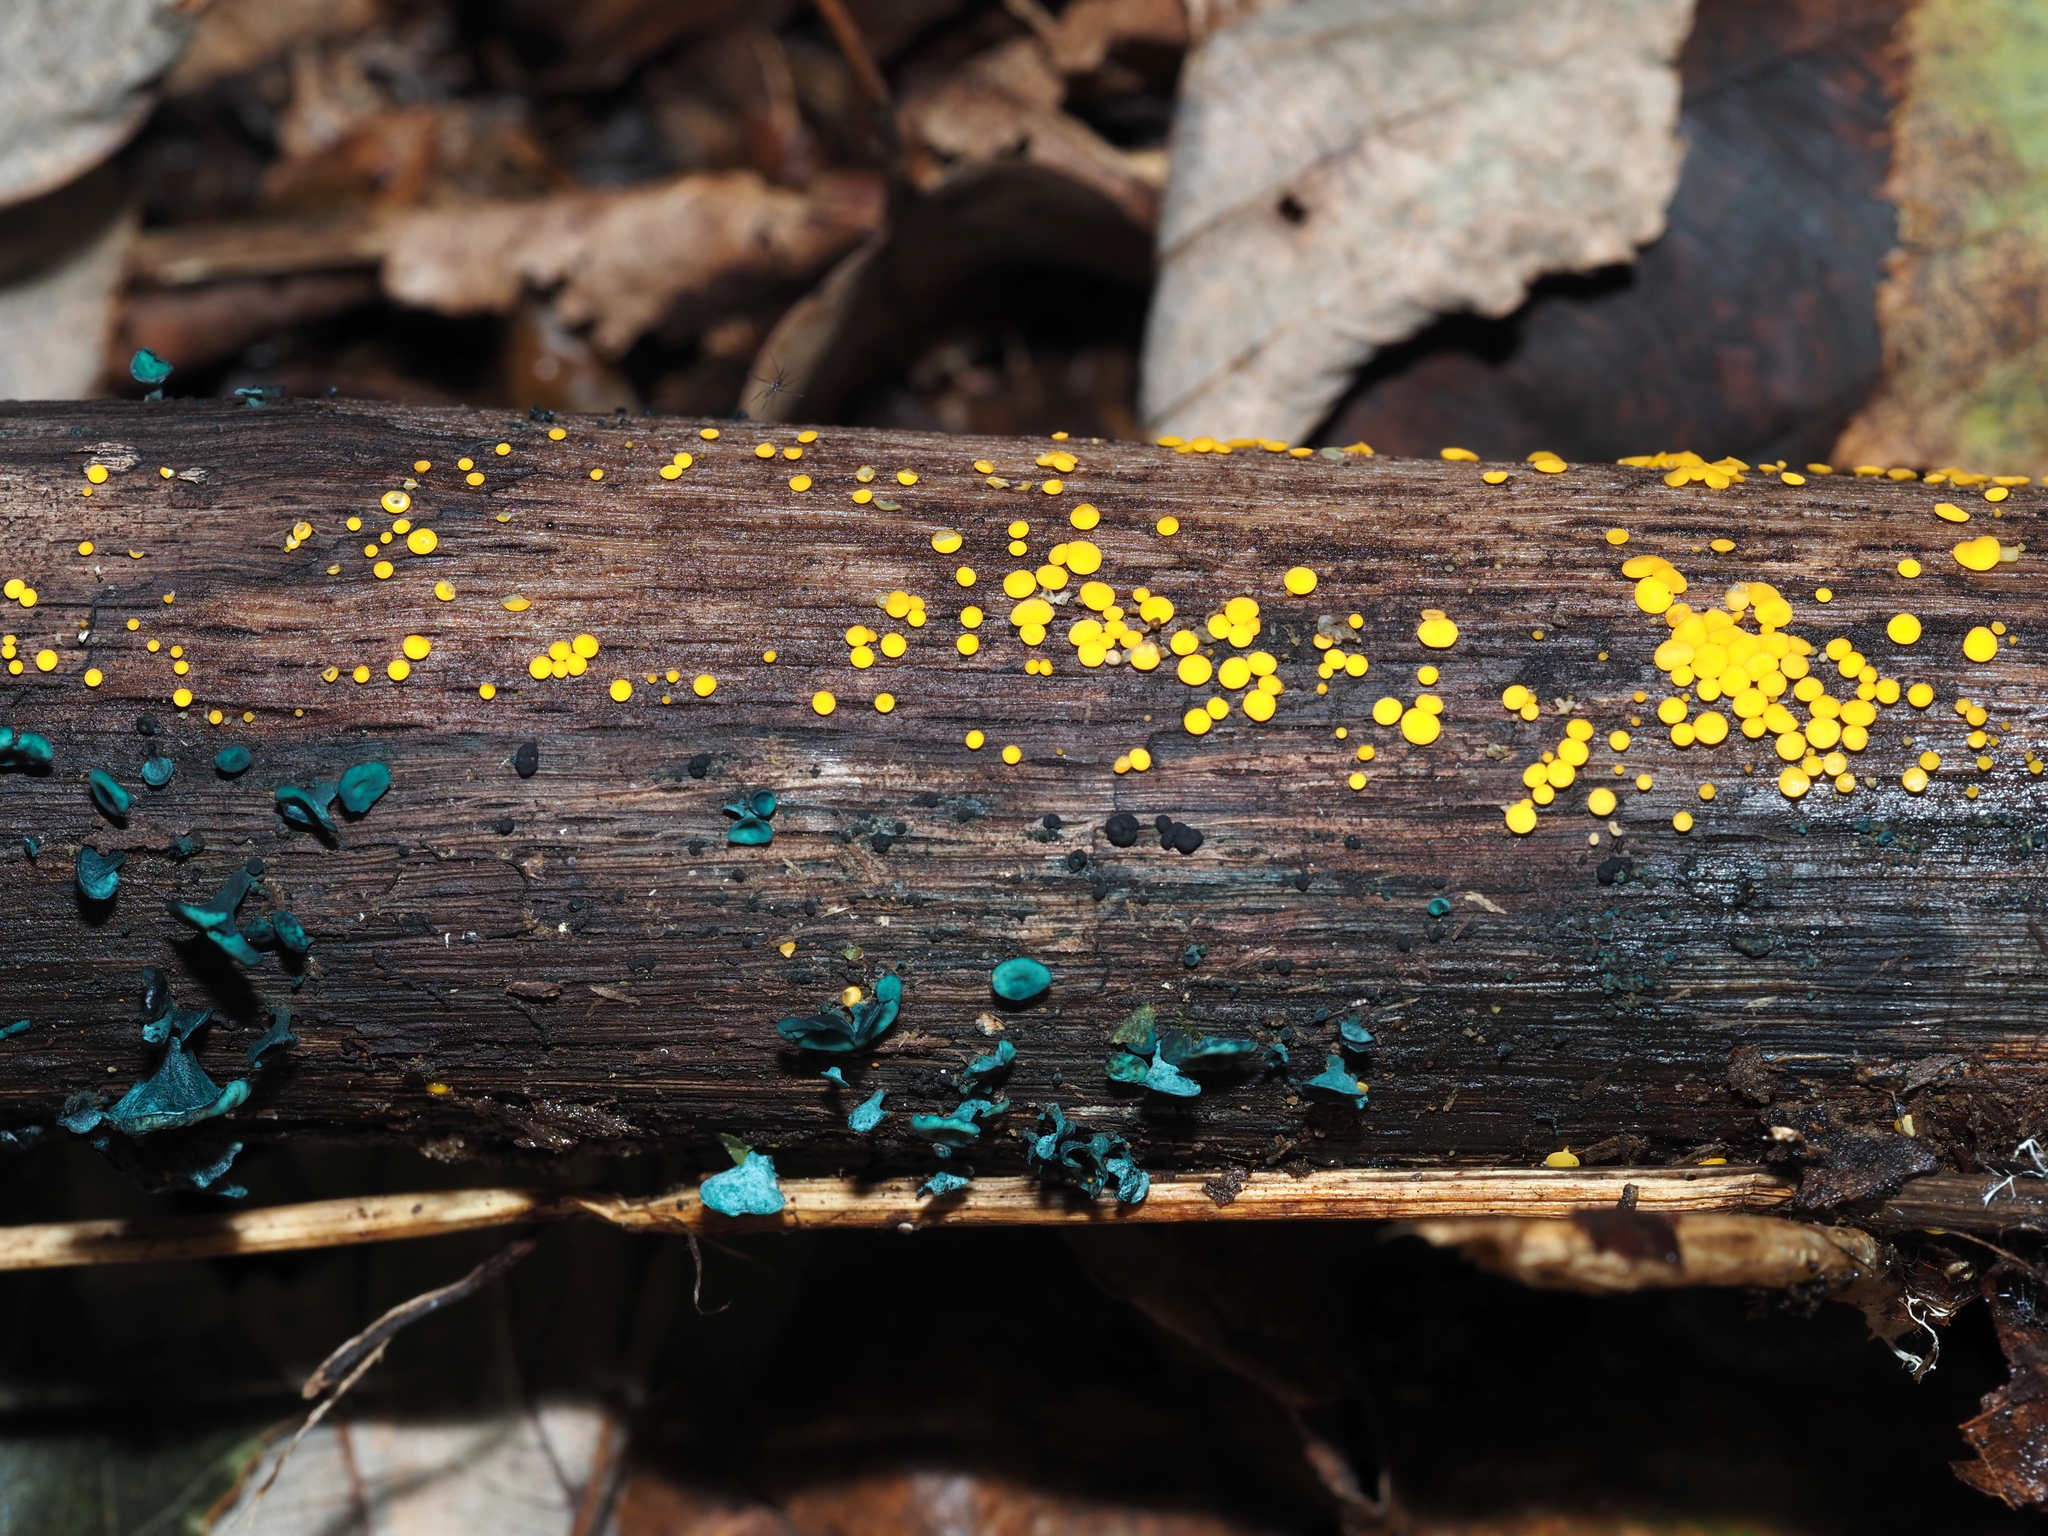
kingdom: Fungi
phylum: Ascomycota
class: Leotiomycetes
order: Helotiales
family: Pezizellaceae
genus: Calycina
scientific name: Calycina citrina
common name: Yellow fairy cups
